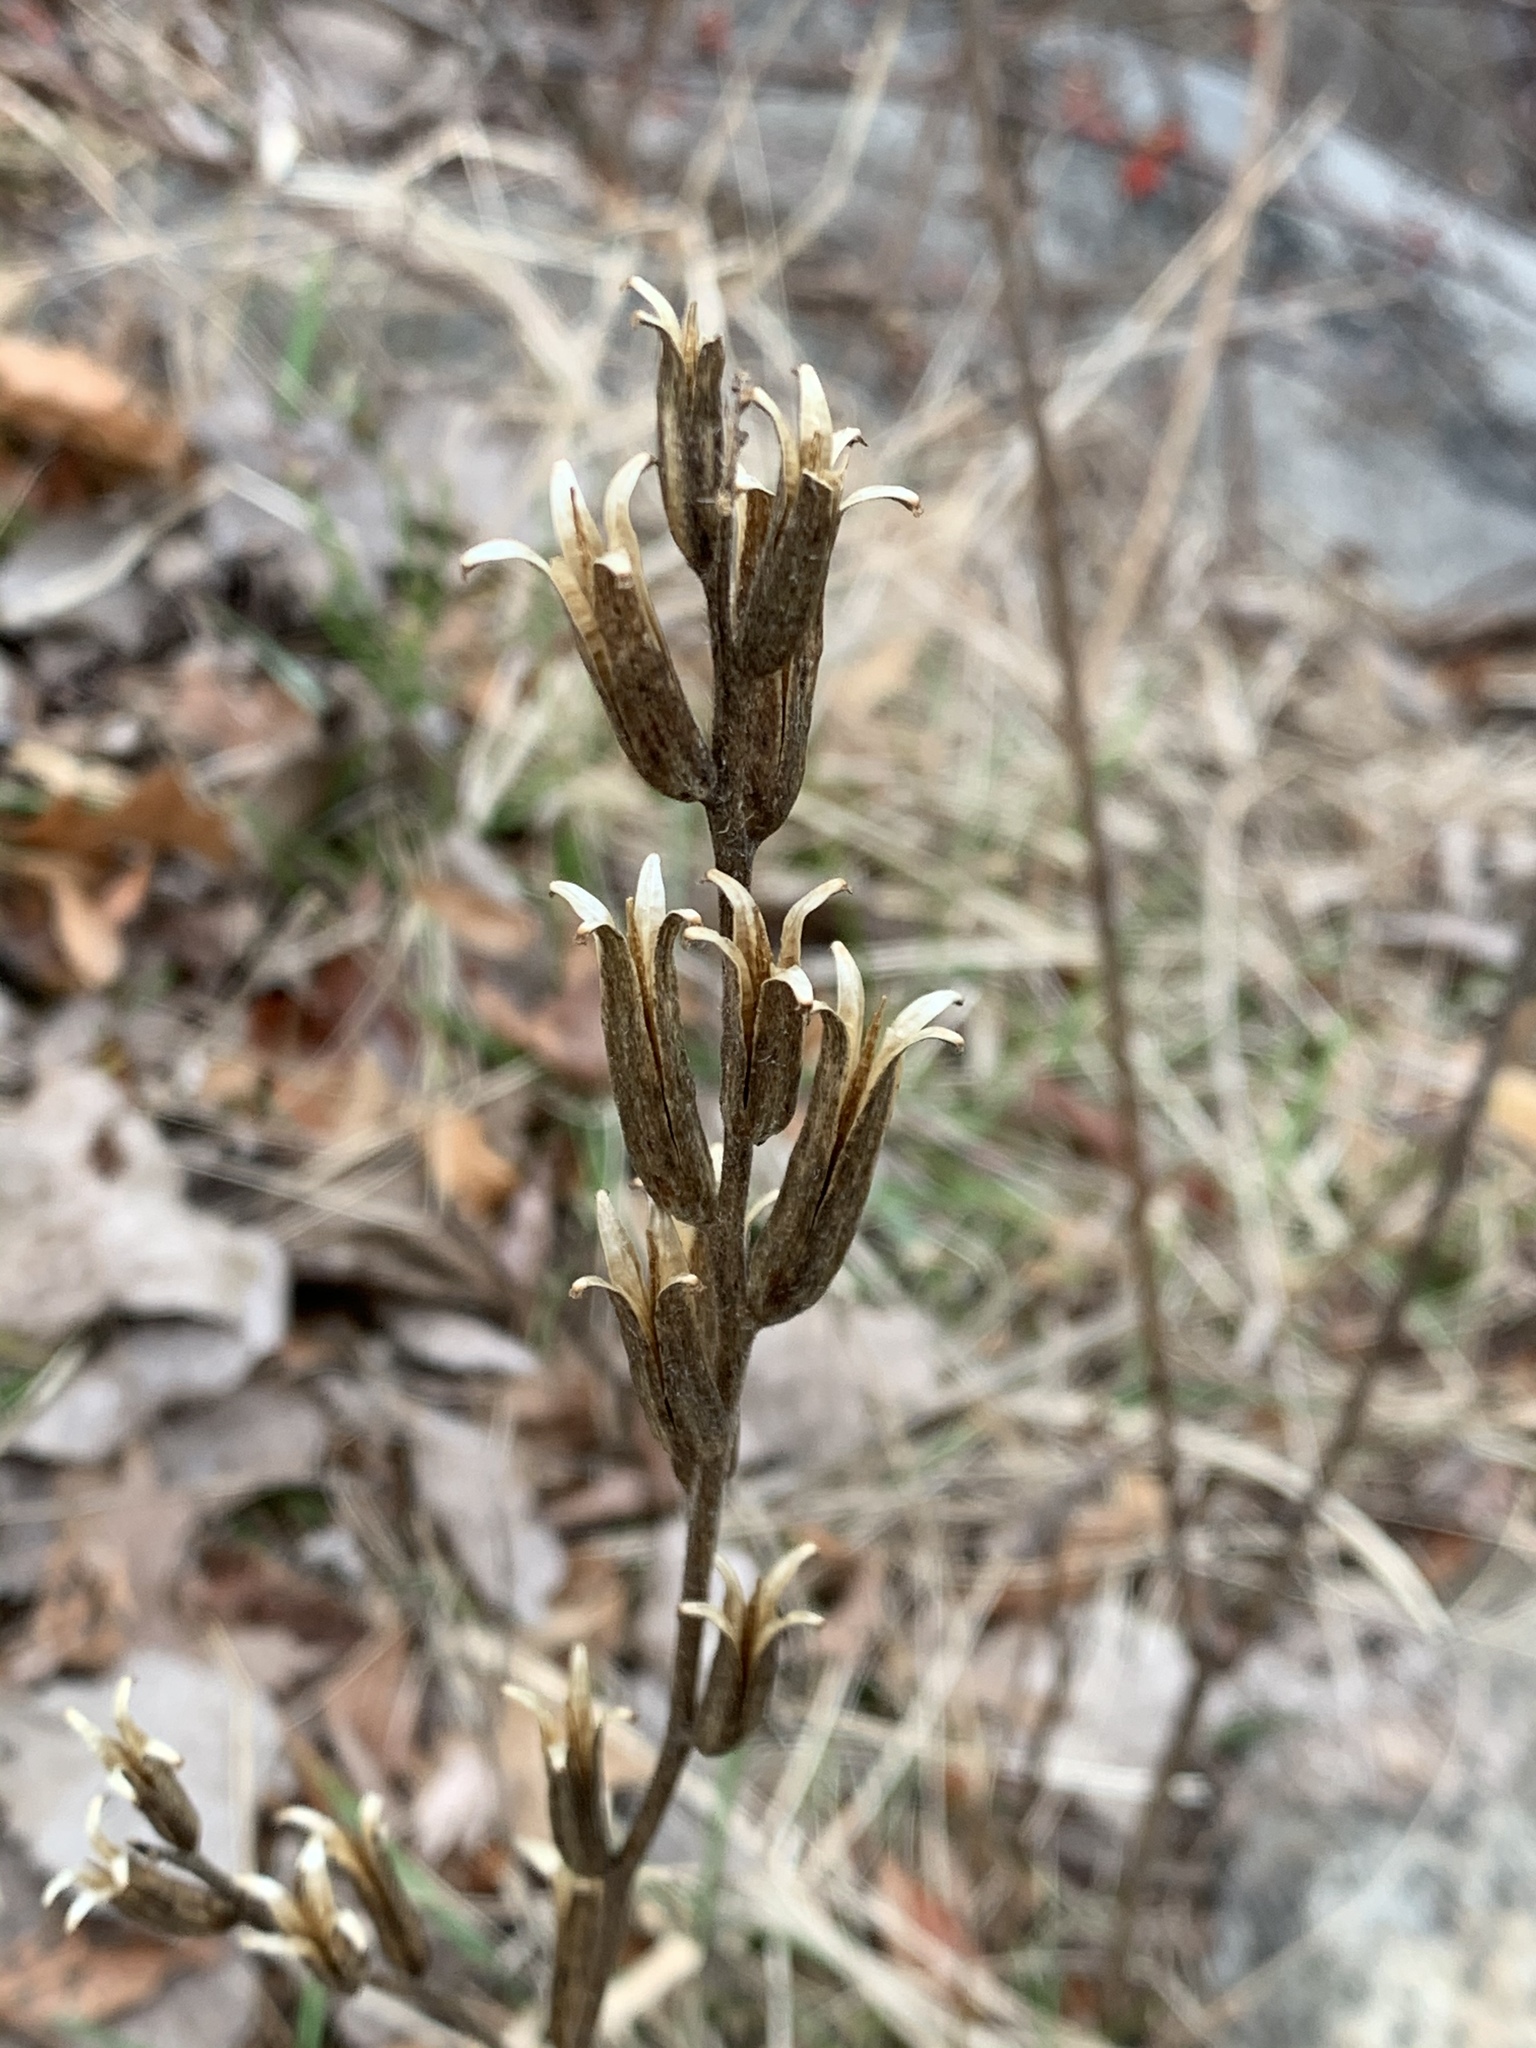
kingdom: Plantae
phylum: Tracheophyta
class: Magnoliopsida
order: Myrtales
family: Onagraceae
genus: Oenothera
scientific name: Oenothera biennis
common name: Common evening-primrose
